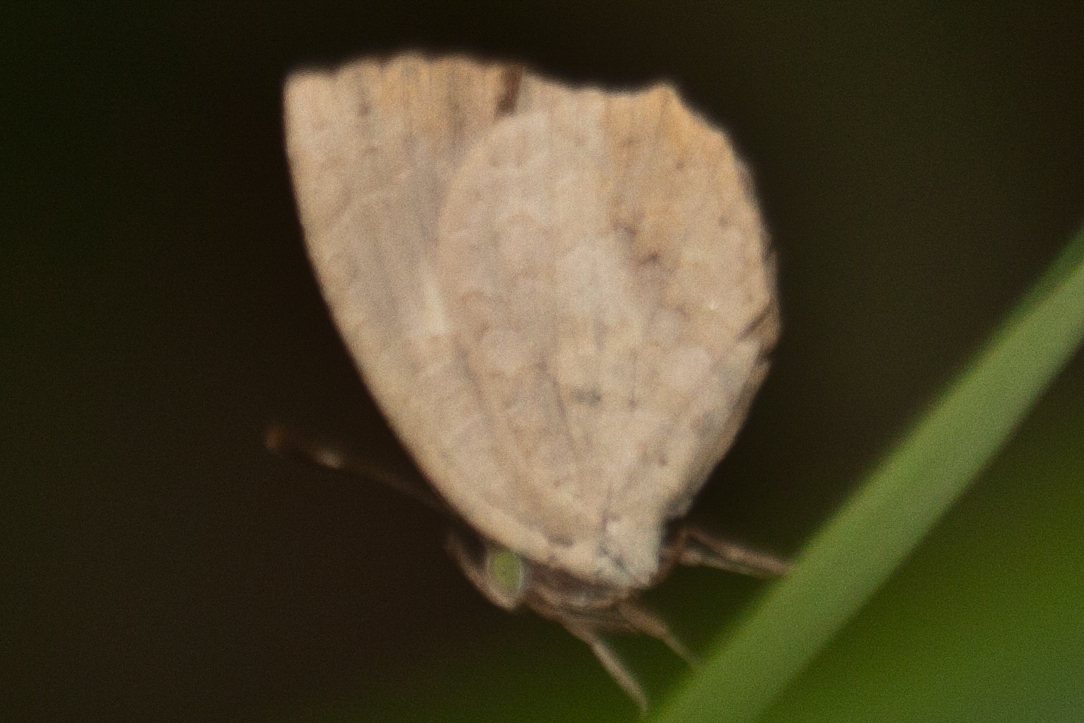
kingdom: Animalia
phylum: Arthropoda
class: Insecta
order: Lepidoptera
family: Lycaenidae
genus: Miletus
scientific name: Miletus chinensis
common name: Common brownie
